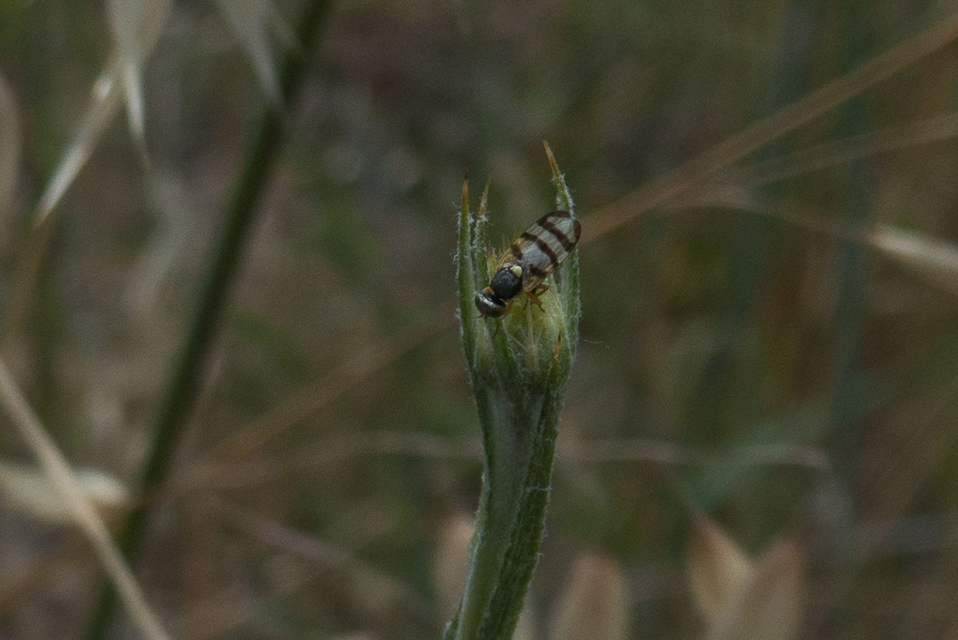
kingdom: Animalia
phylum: Arthropoda
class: Insecta
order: Diptera
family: Tephritidae
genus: Urophora
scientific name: Urophora sirunaseva
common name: Fruit fly
